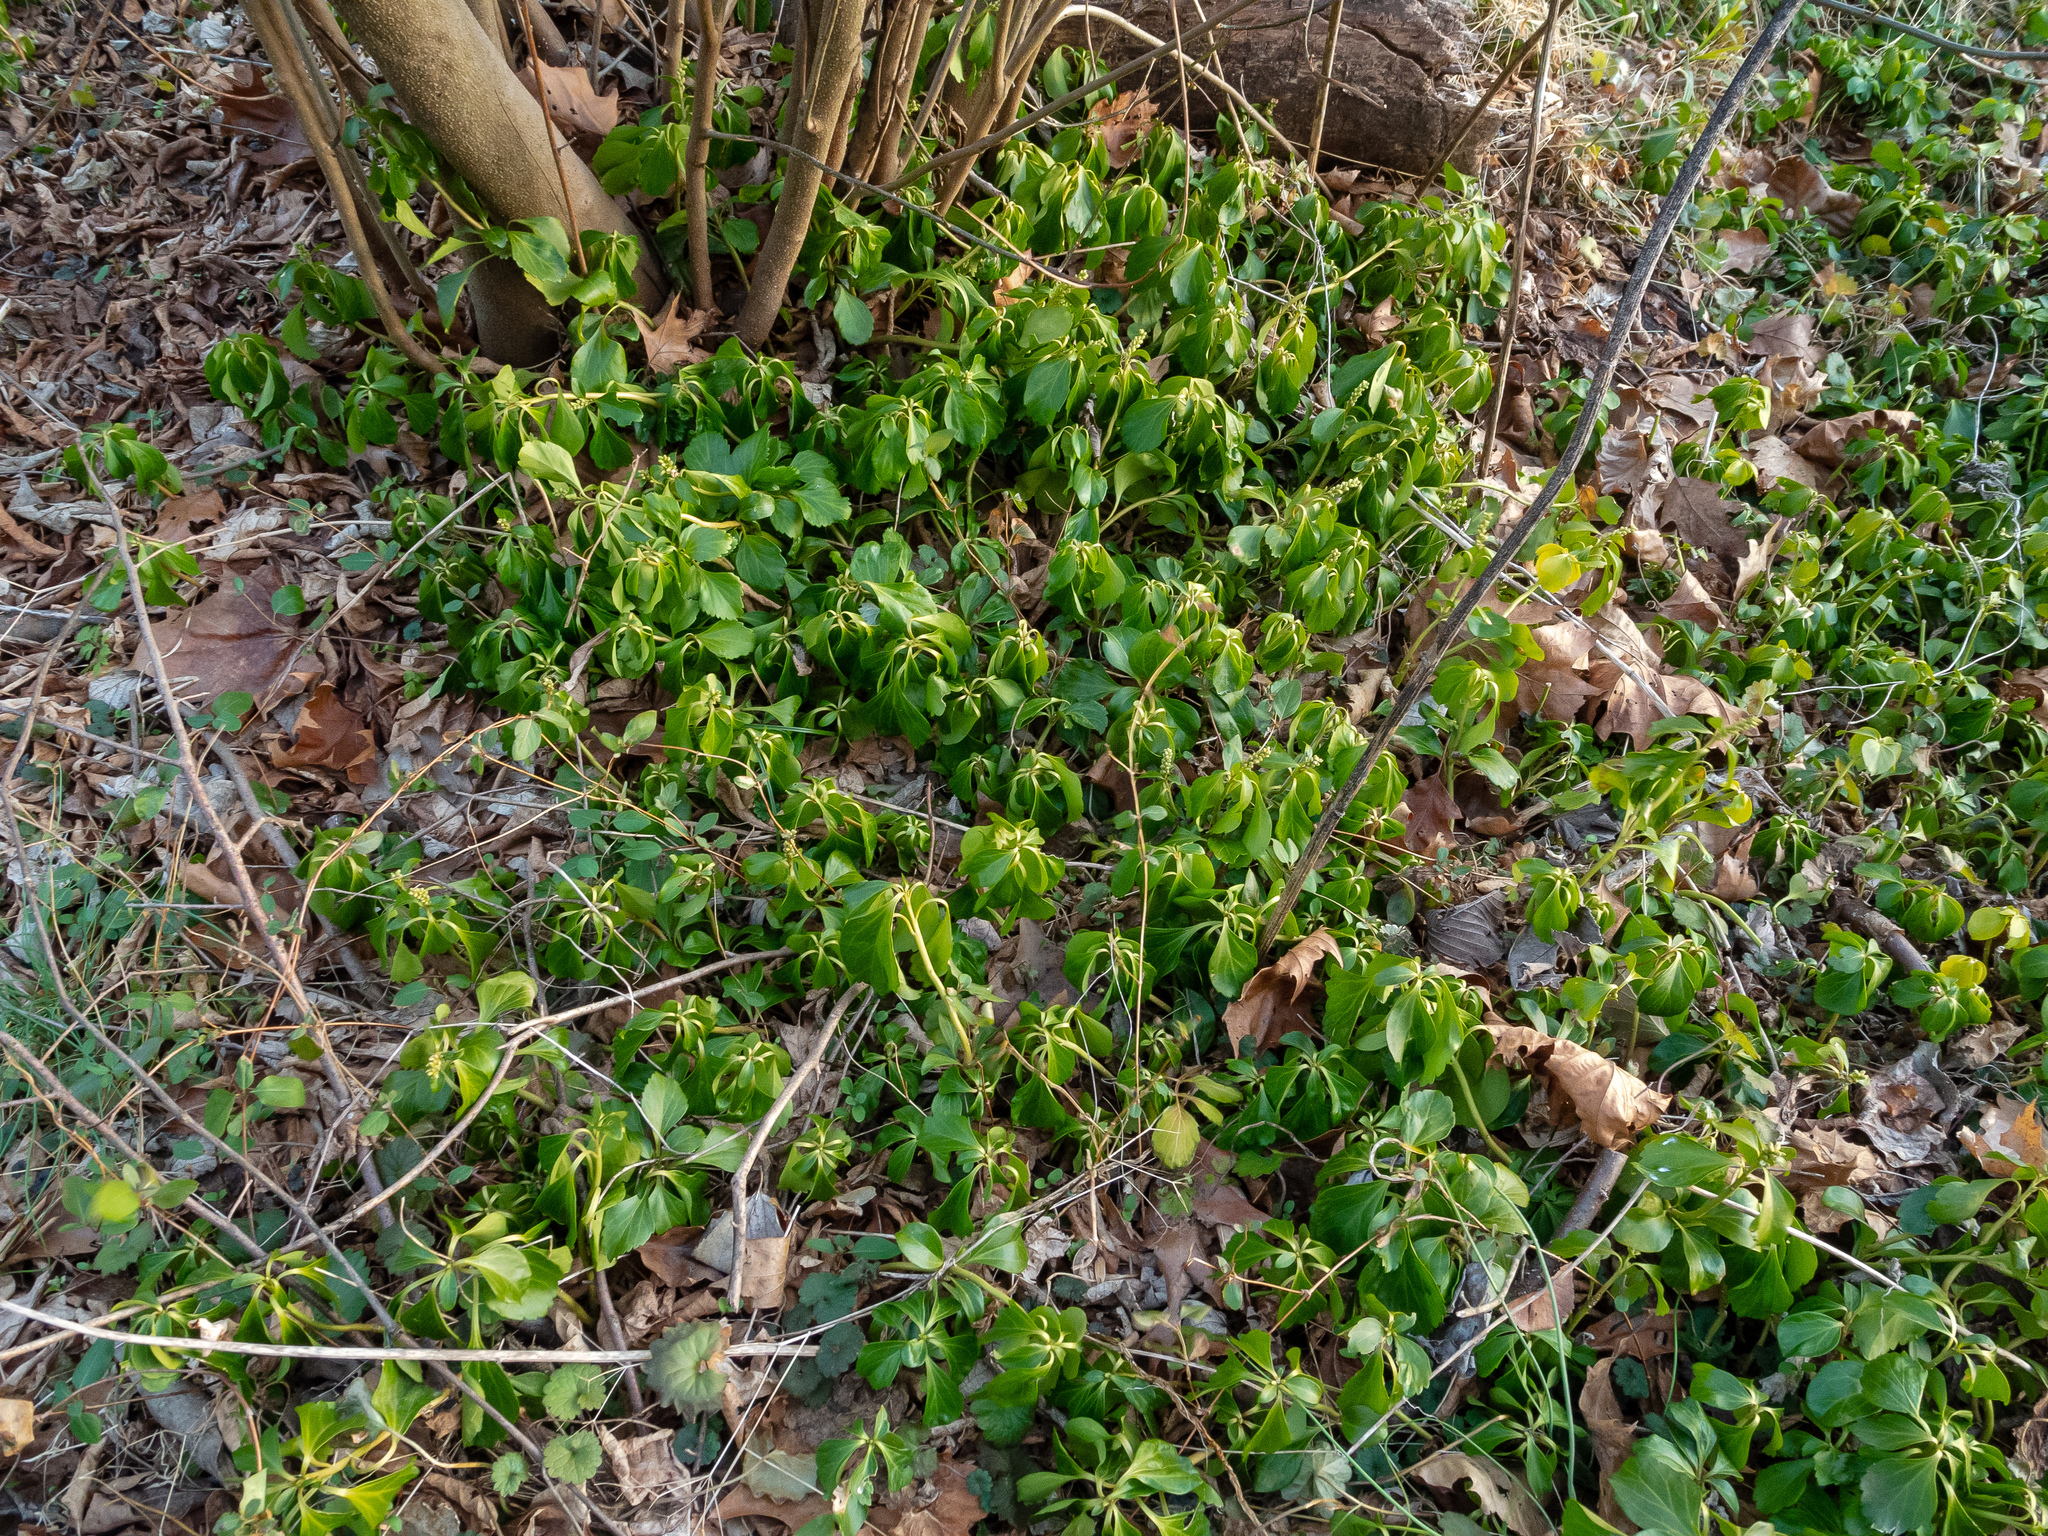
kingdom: Plantae
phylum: Tracheophyta
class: Magnoliopsida
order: Buxales
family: Buxaceae
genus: Pachysandra
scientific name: Pachysandra terminalis
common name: Japanese pachysandra
